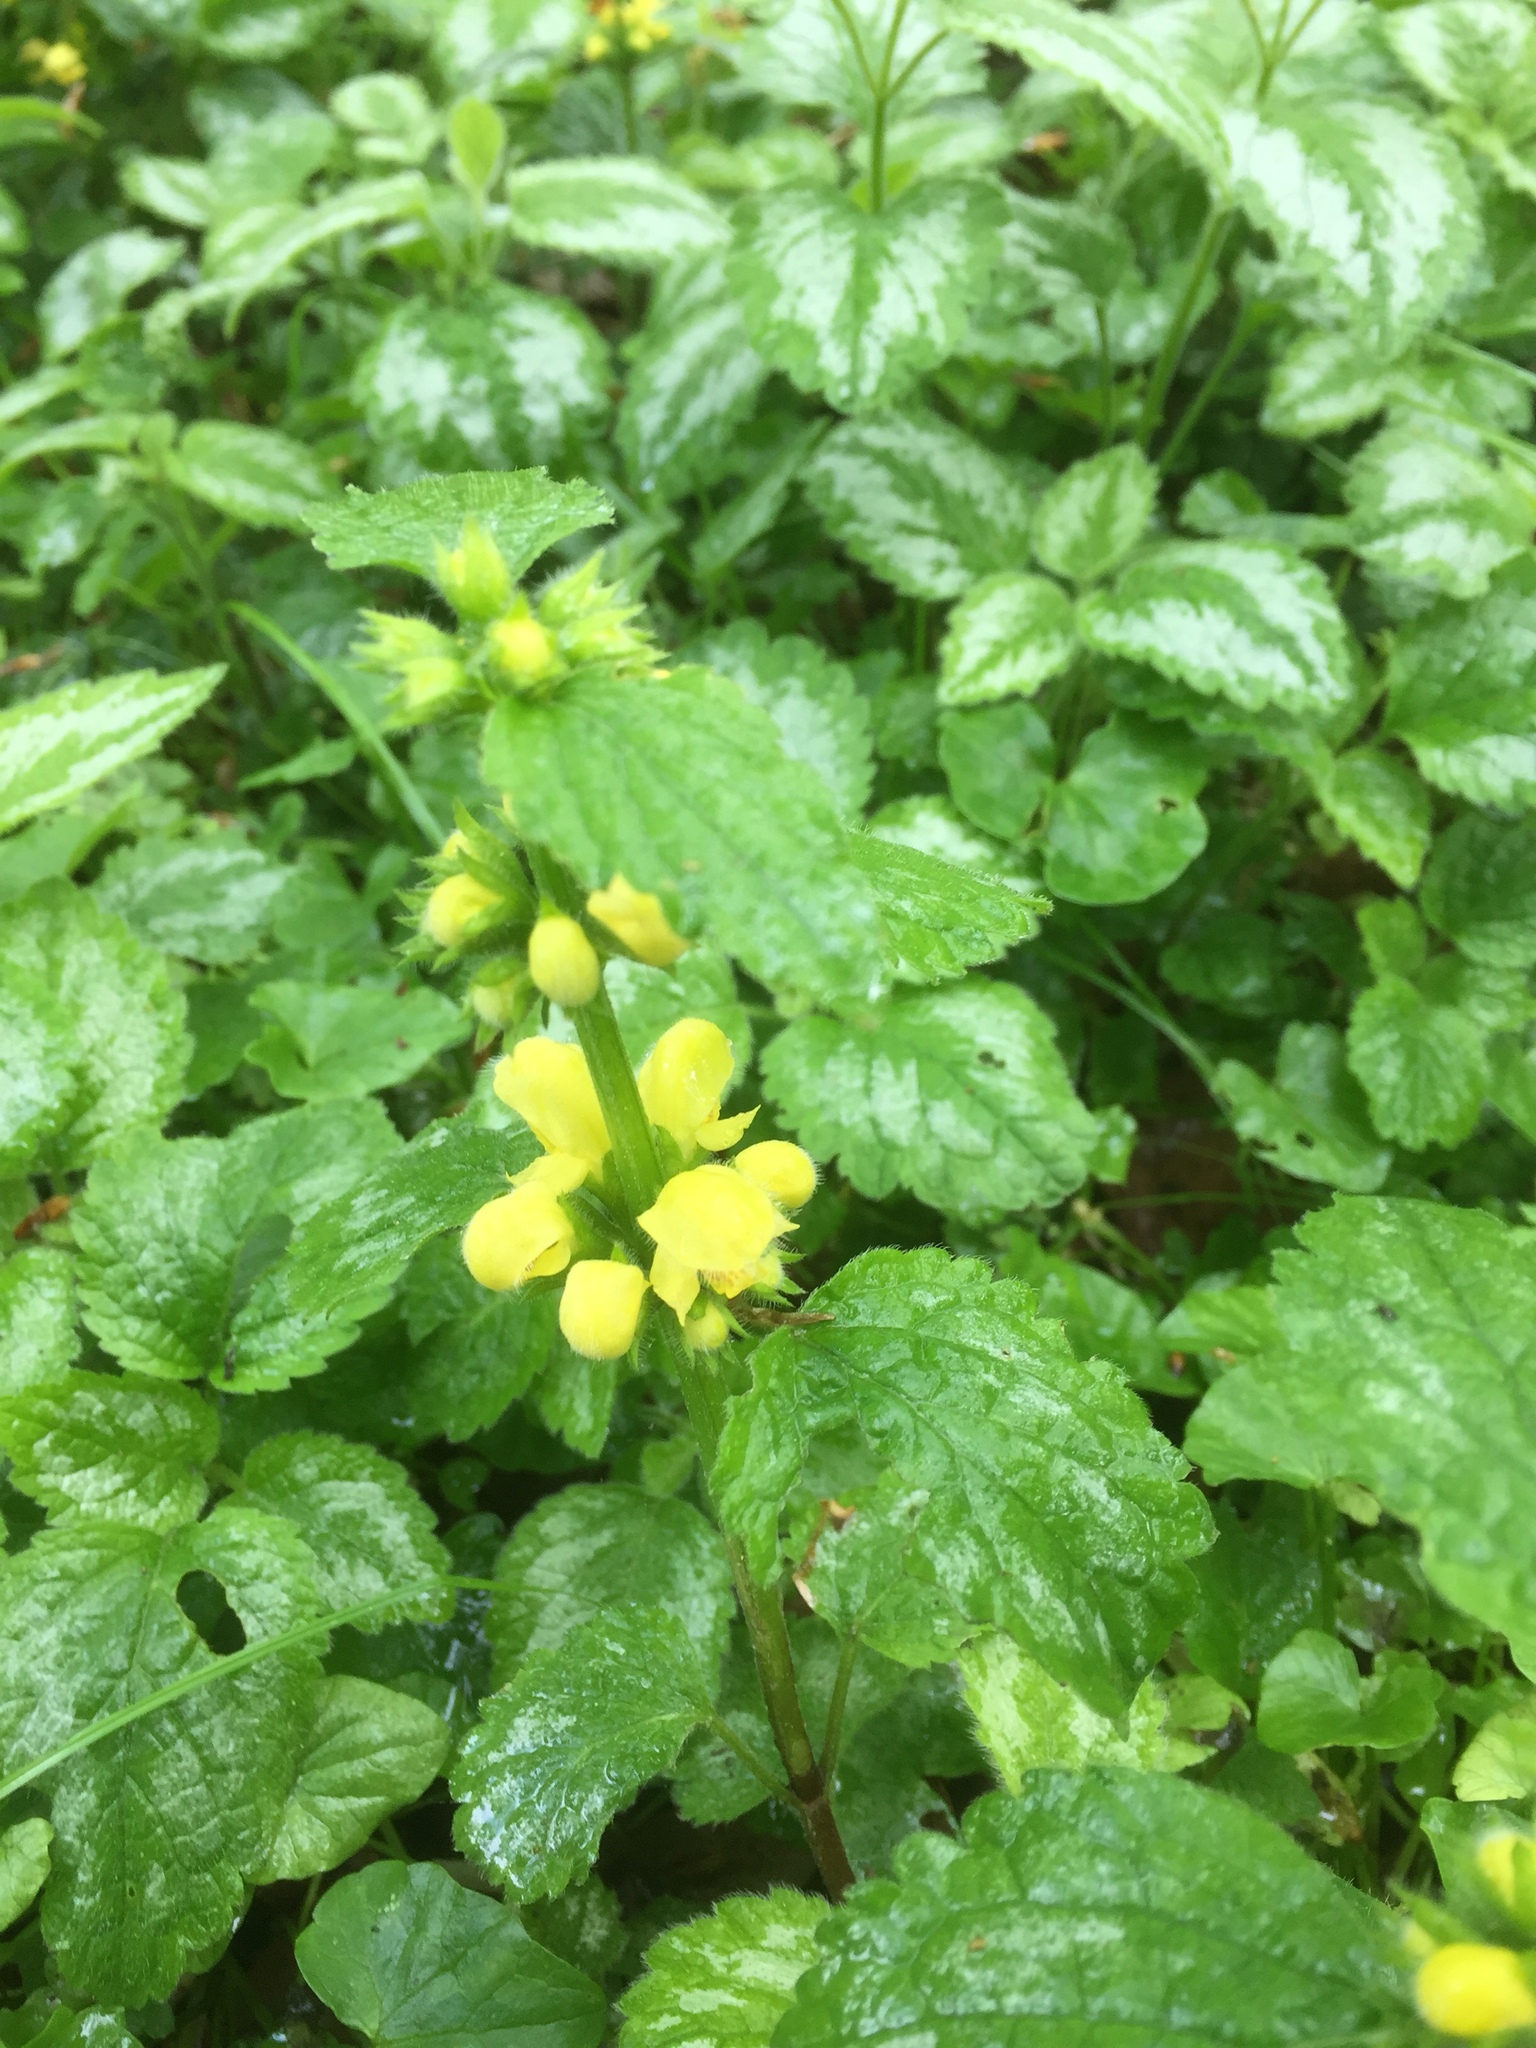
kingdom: Plantae
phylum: Tracheophyta
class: Magnoliopsida
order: Lamiales
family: Lamiaceae
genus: Lamium
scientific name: Lamium galeobdolon
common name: Yellow archangel
